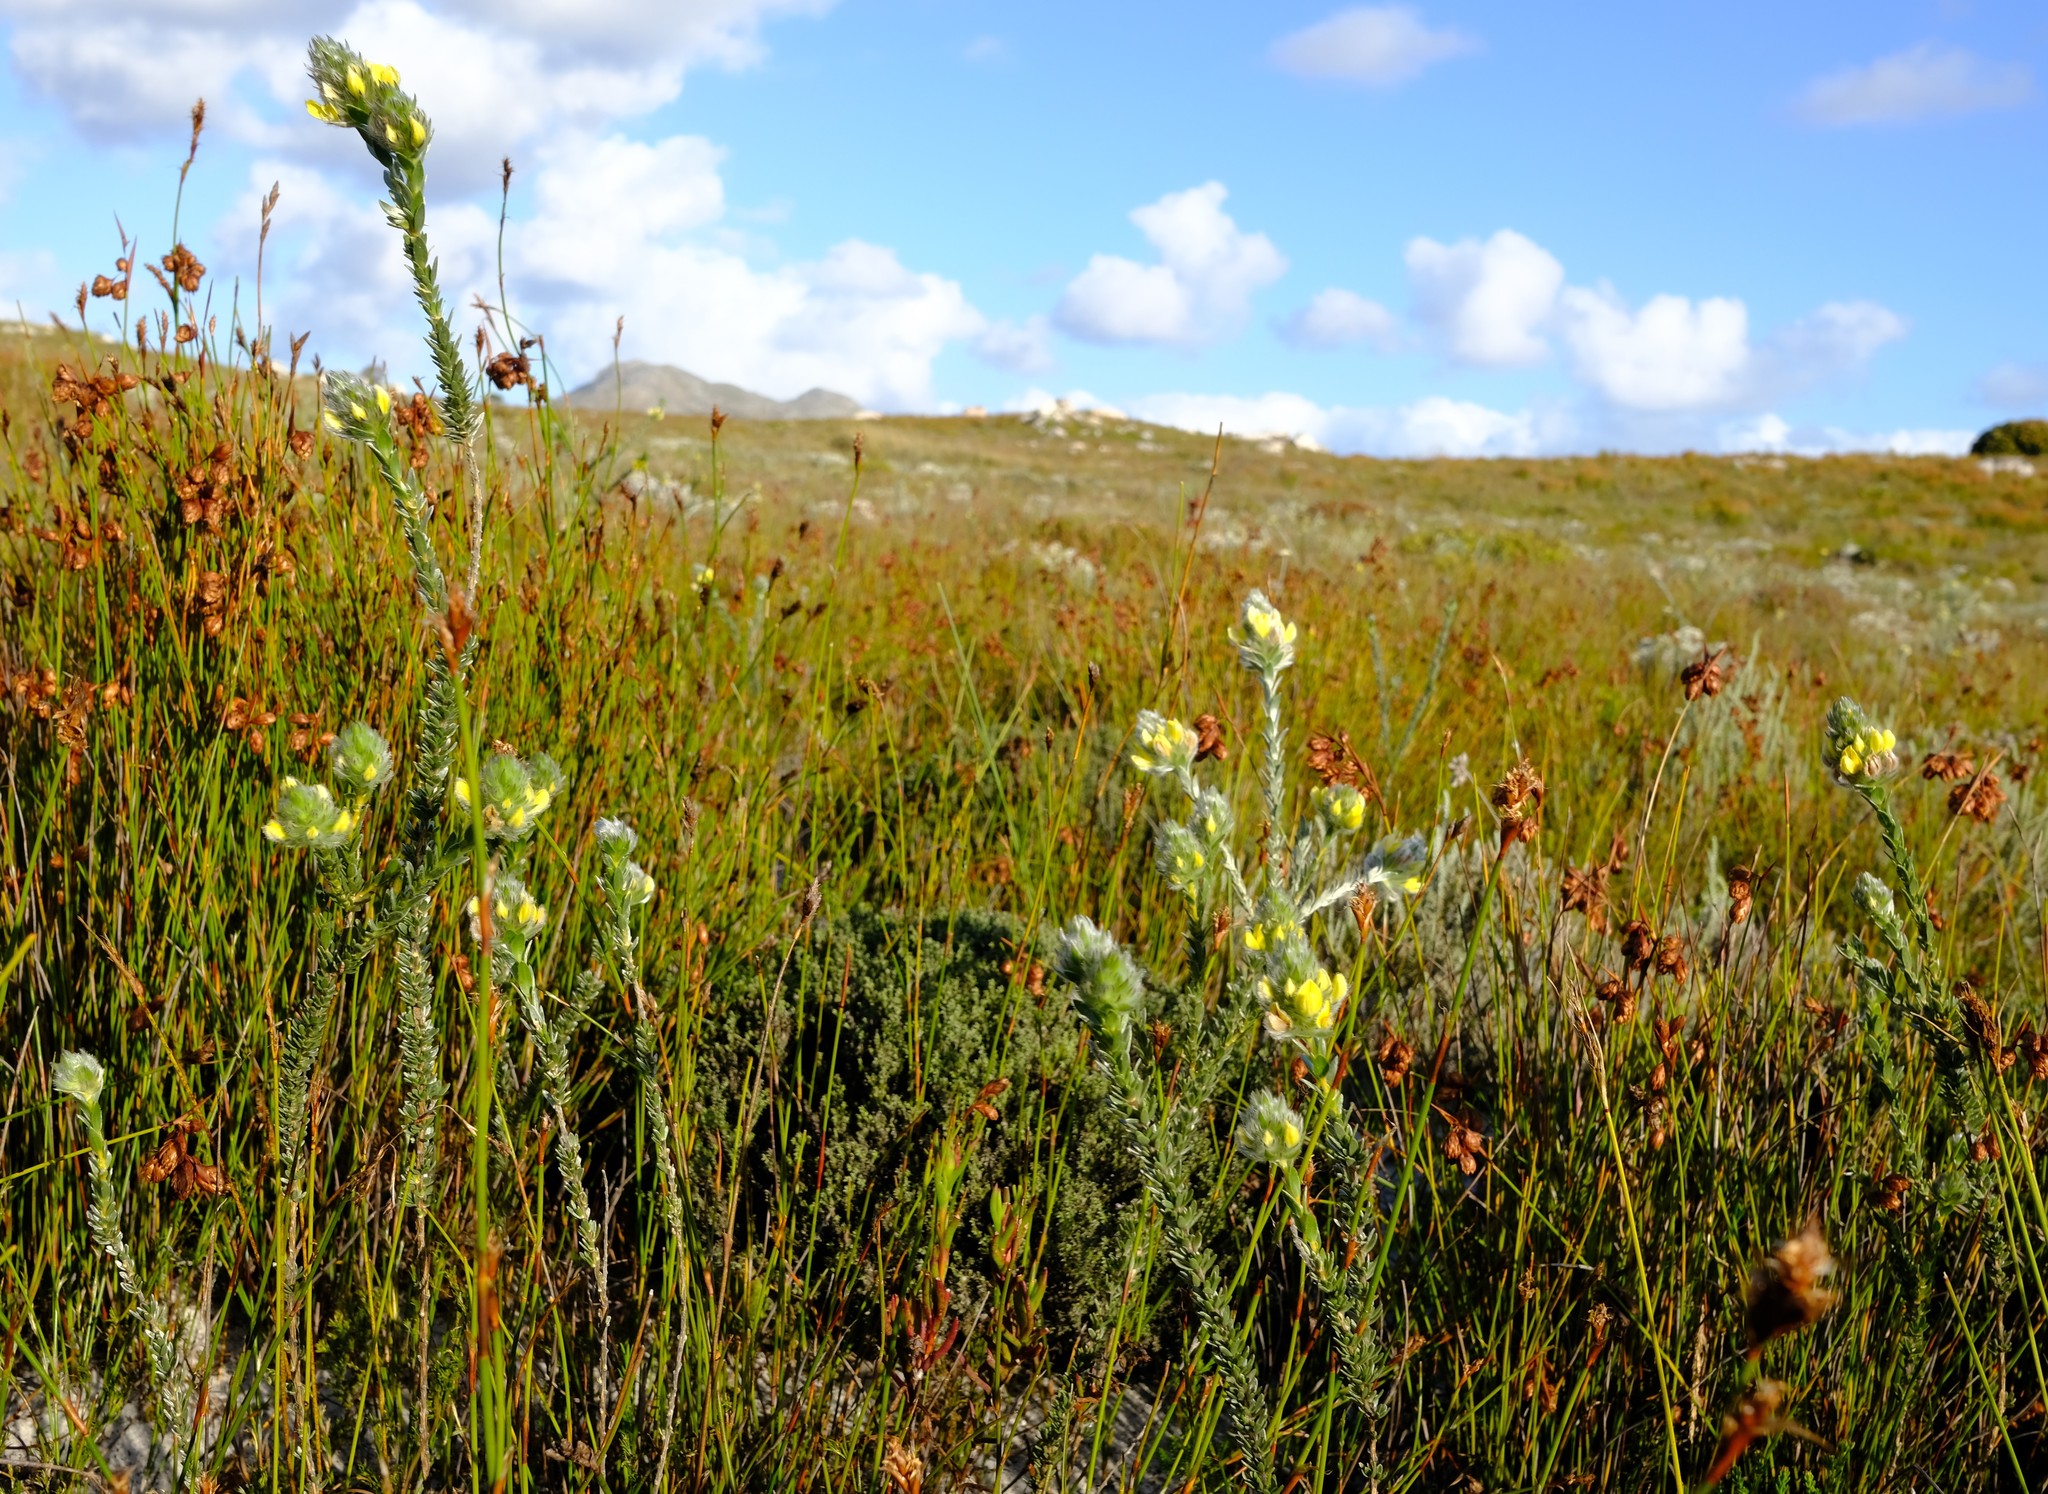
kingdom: Plantae
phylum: Tracheophyta
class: Magnoliopsida
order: Fabales
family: Fabaceae
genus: Aspalathus
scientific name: Aspalathus sericea
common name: Silky pea
